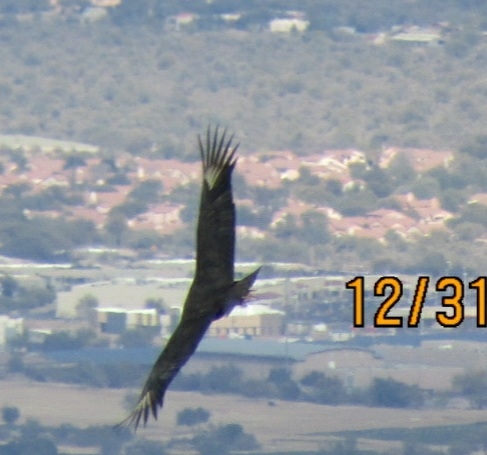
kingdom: Animalia
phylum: Chordata
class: Aves
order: Accipitriformes
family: Cathartidae
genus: Coragyps
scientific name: Coragyps atratus
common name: Black vulture
